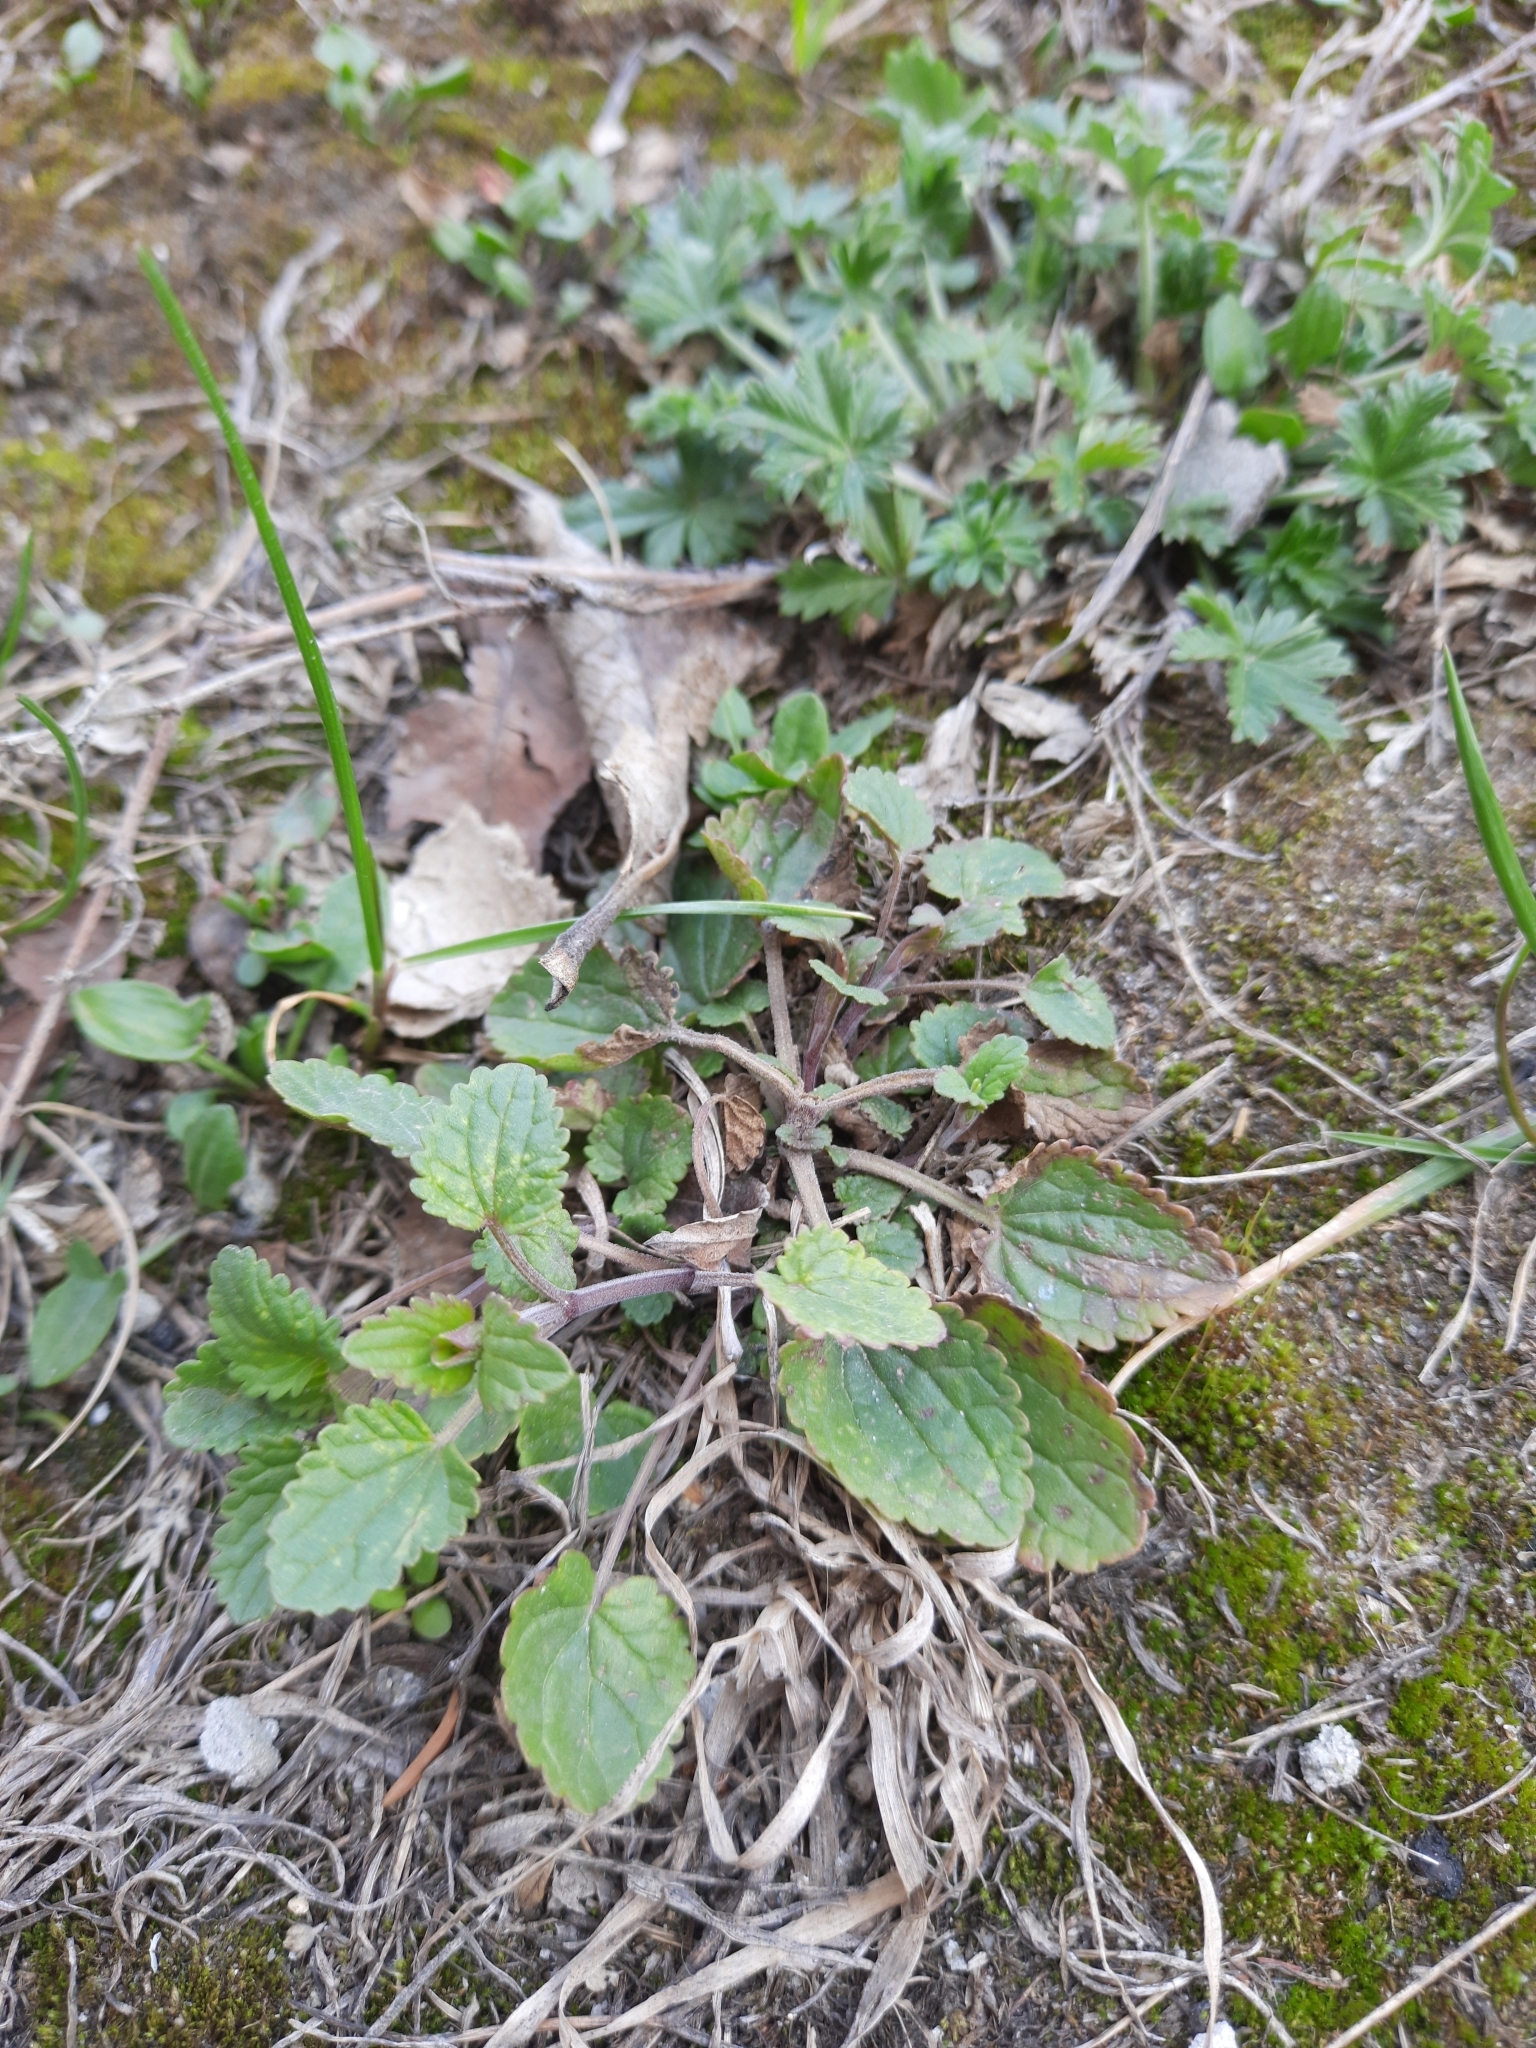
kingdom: Plantae
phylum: Tracheophyta
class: Magnoliopsida
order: Lamiales
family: Lamiaceae
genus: Dracocephalum
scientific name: Dracocephalum thymiflorum
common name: Thymeleaf dragonhead
